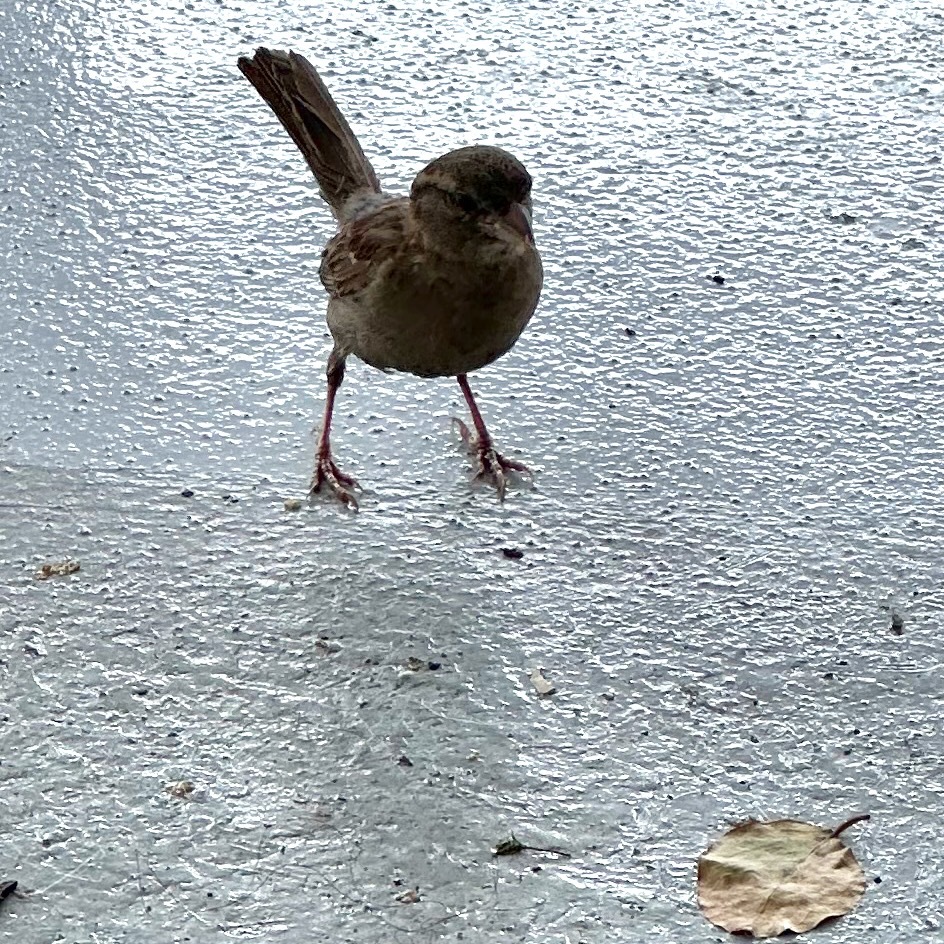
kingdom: Animalia
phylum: Chordata
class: Aves
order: Passeriformes
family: Passeridae
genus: Passer
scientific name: Passer domesticus
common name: House sparrow
